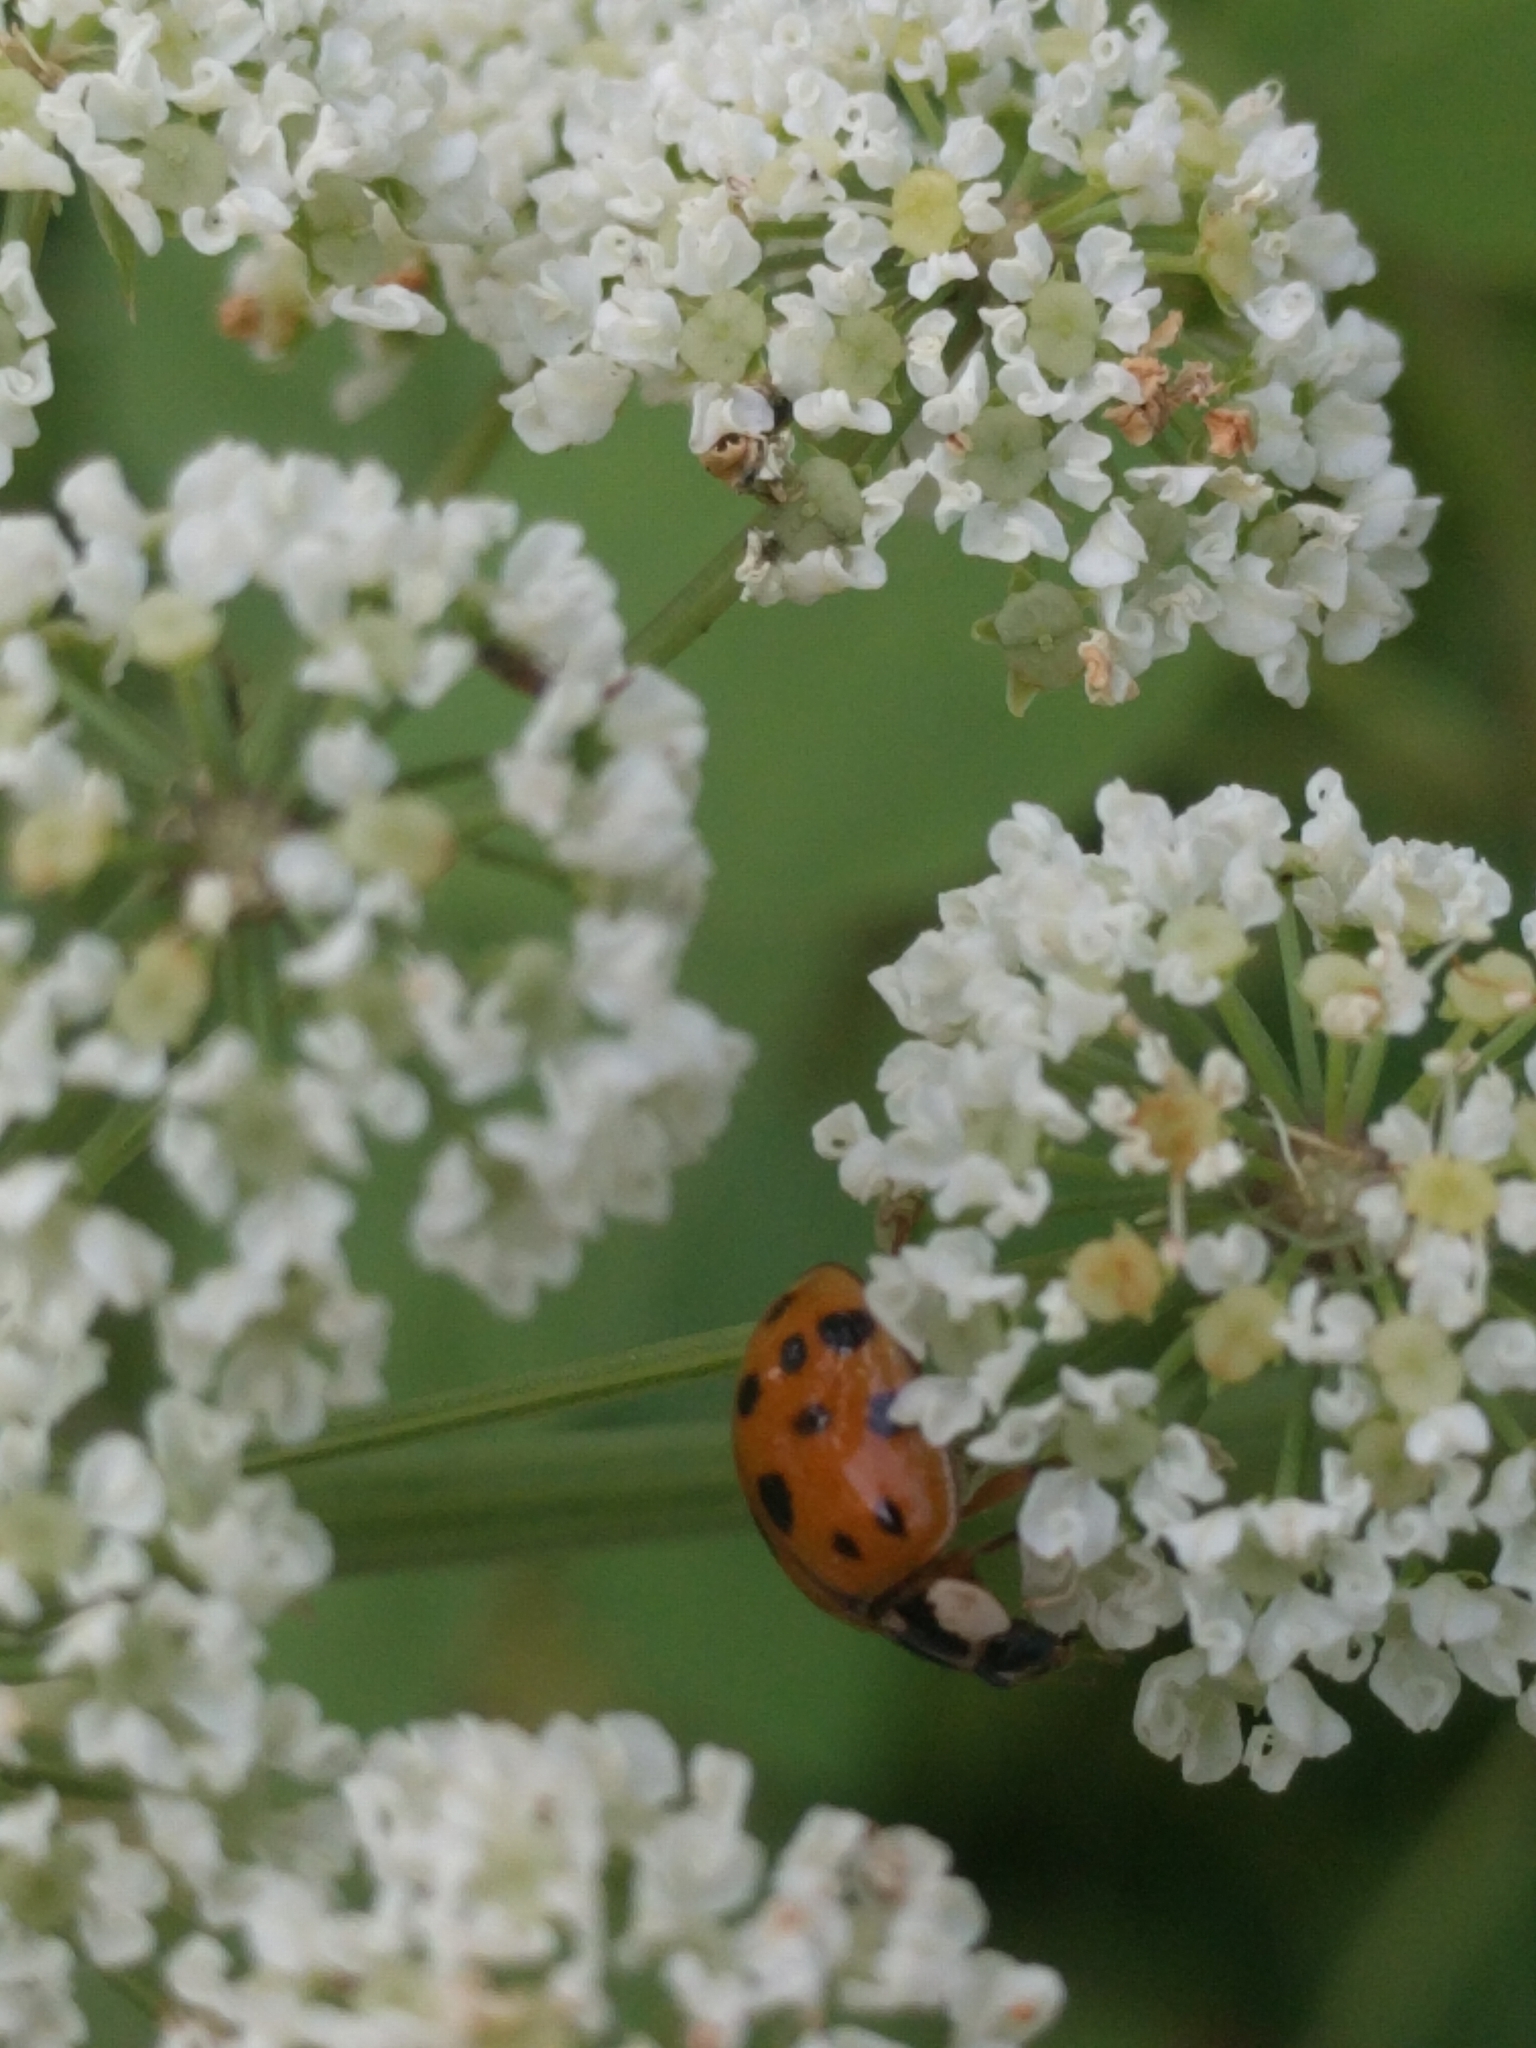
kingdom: Animalia
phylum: Arthropoda
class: Insecta
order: Coleoptera
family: Coccinellidae
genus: Harmonia
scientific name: Harmonia axyridis
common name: Harlequin ladybird
